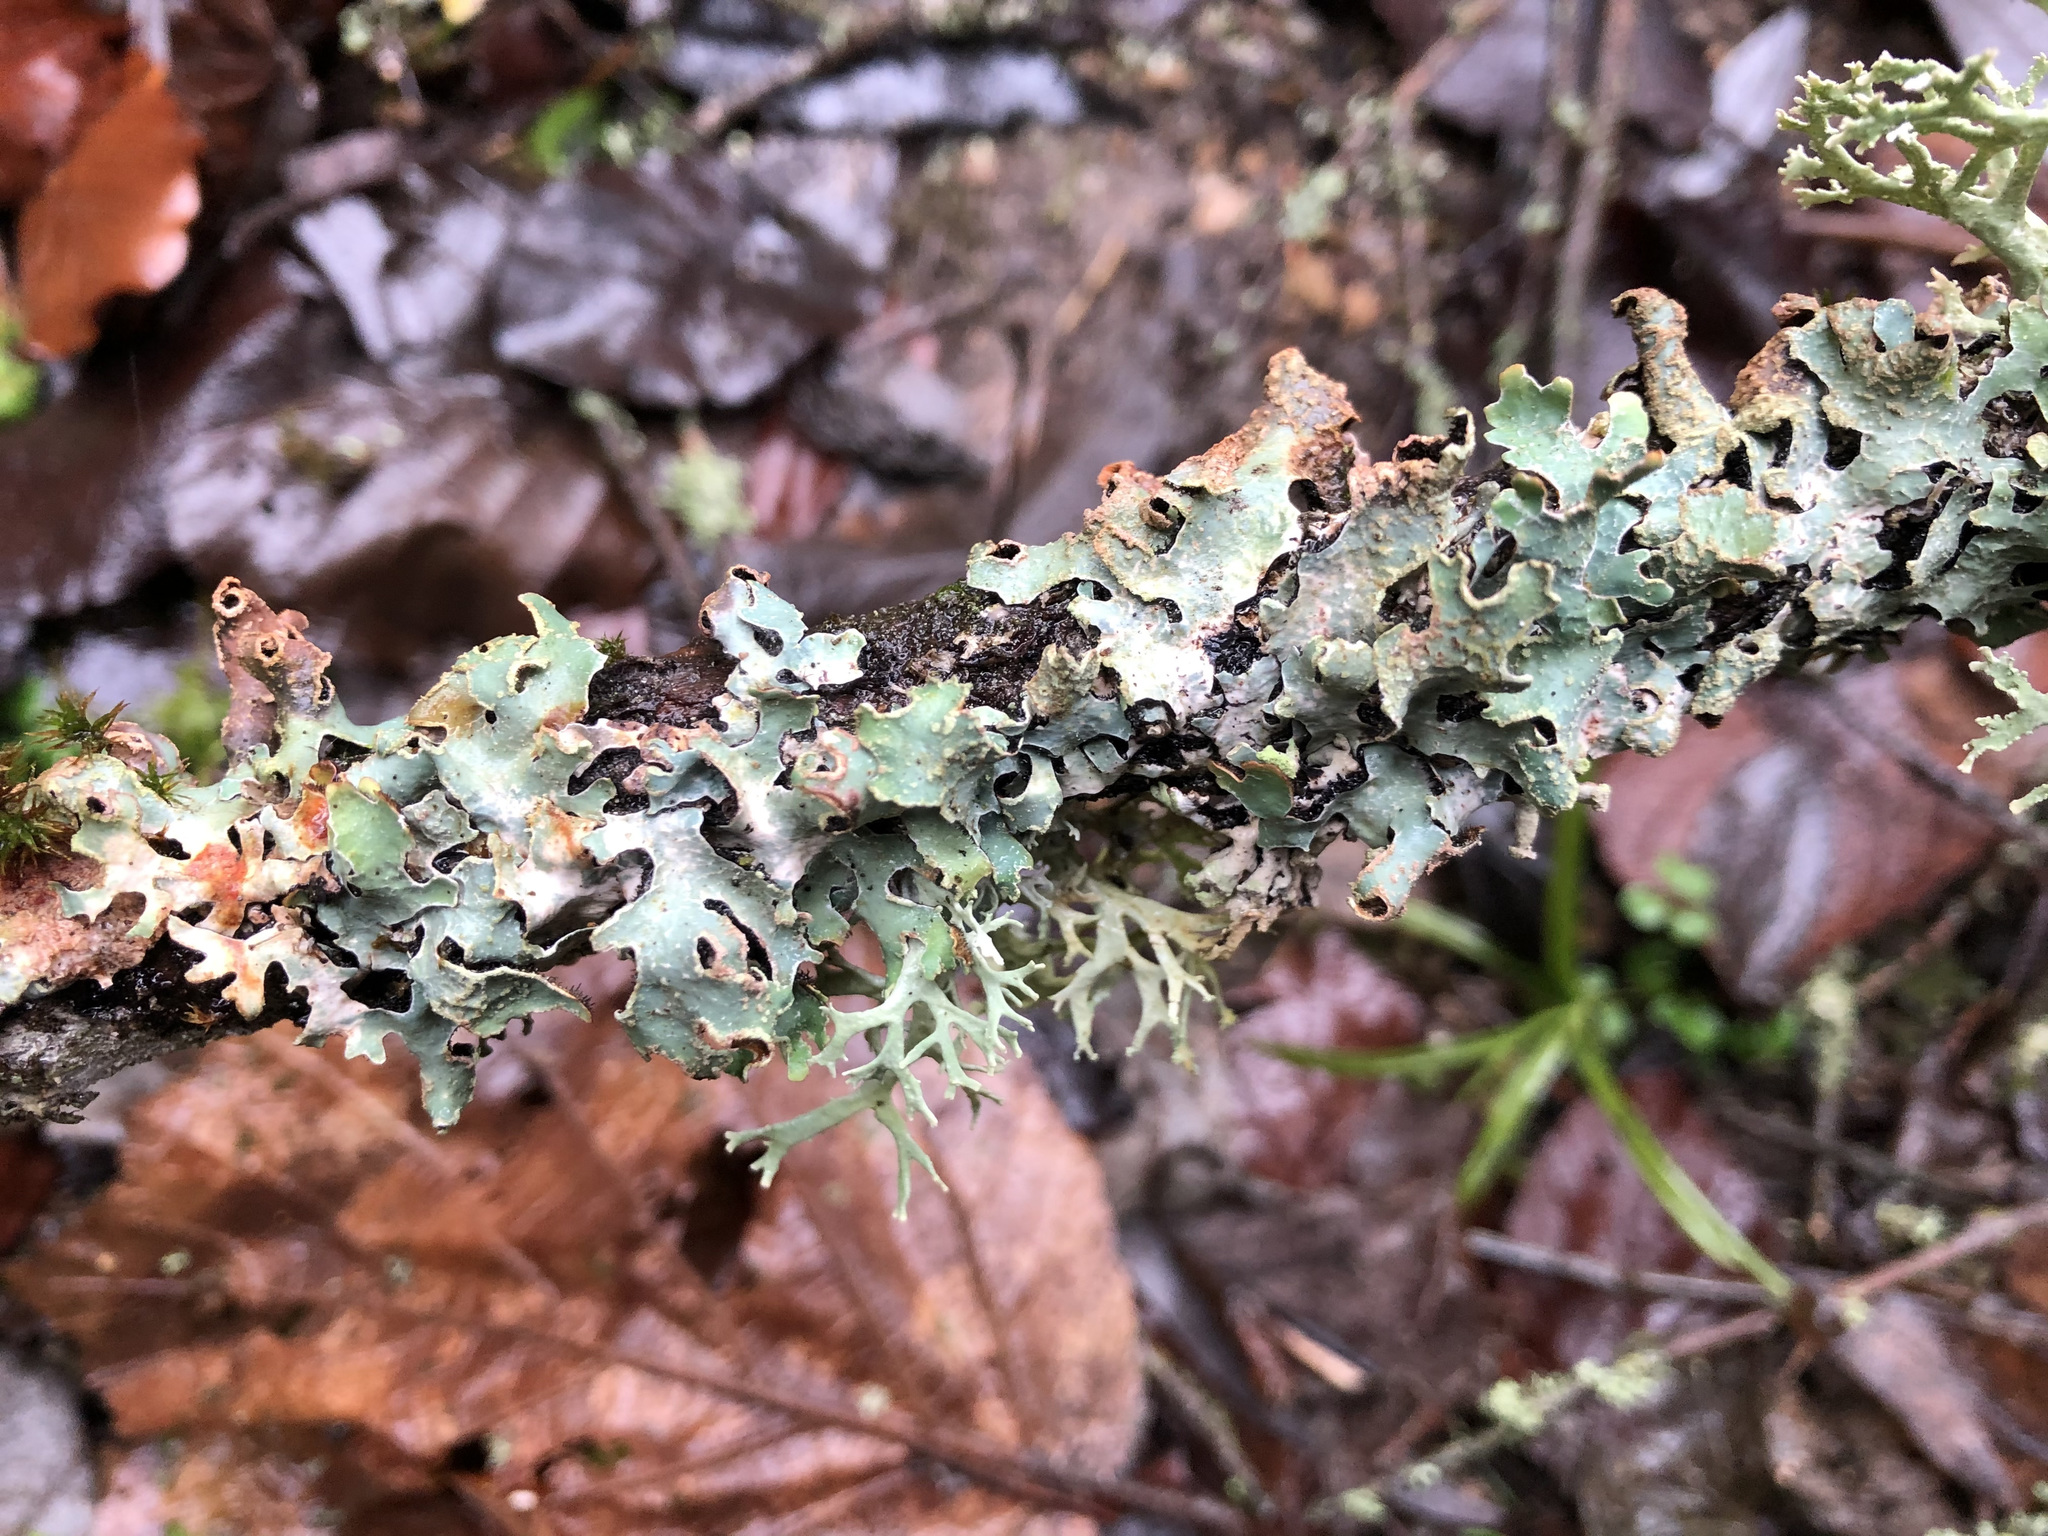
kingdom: Fungi
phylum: Ascomycota
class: Lecanoromycetes
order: Lecanorales
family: Parmeliaceae
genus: Parmelia
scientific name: Parmelia sulcata
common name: Netted shield lichen
